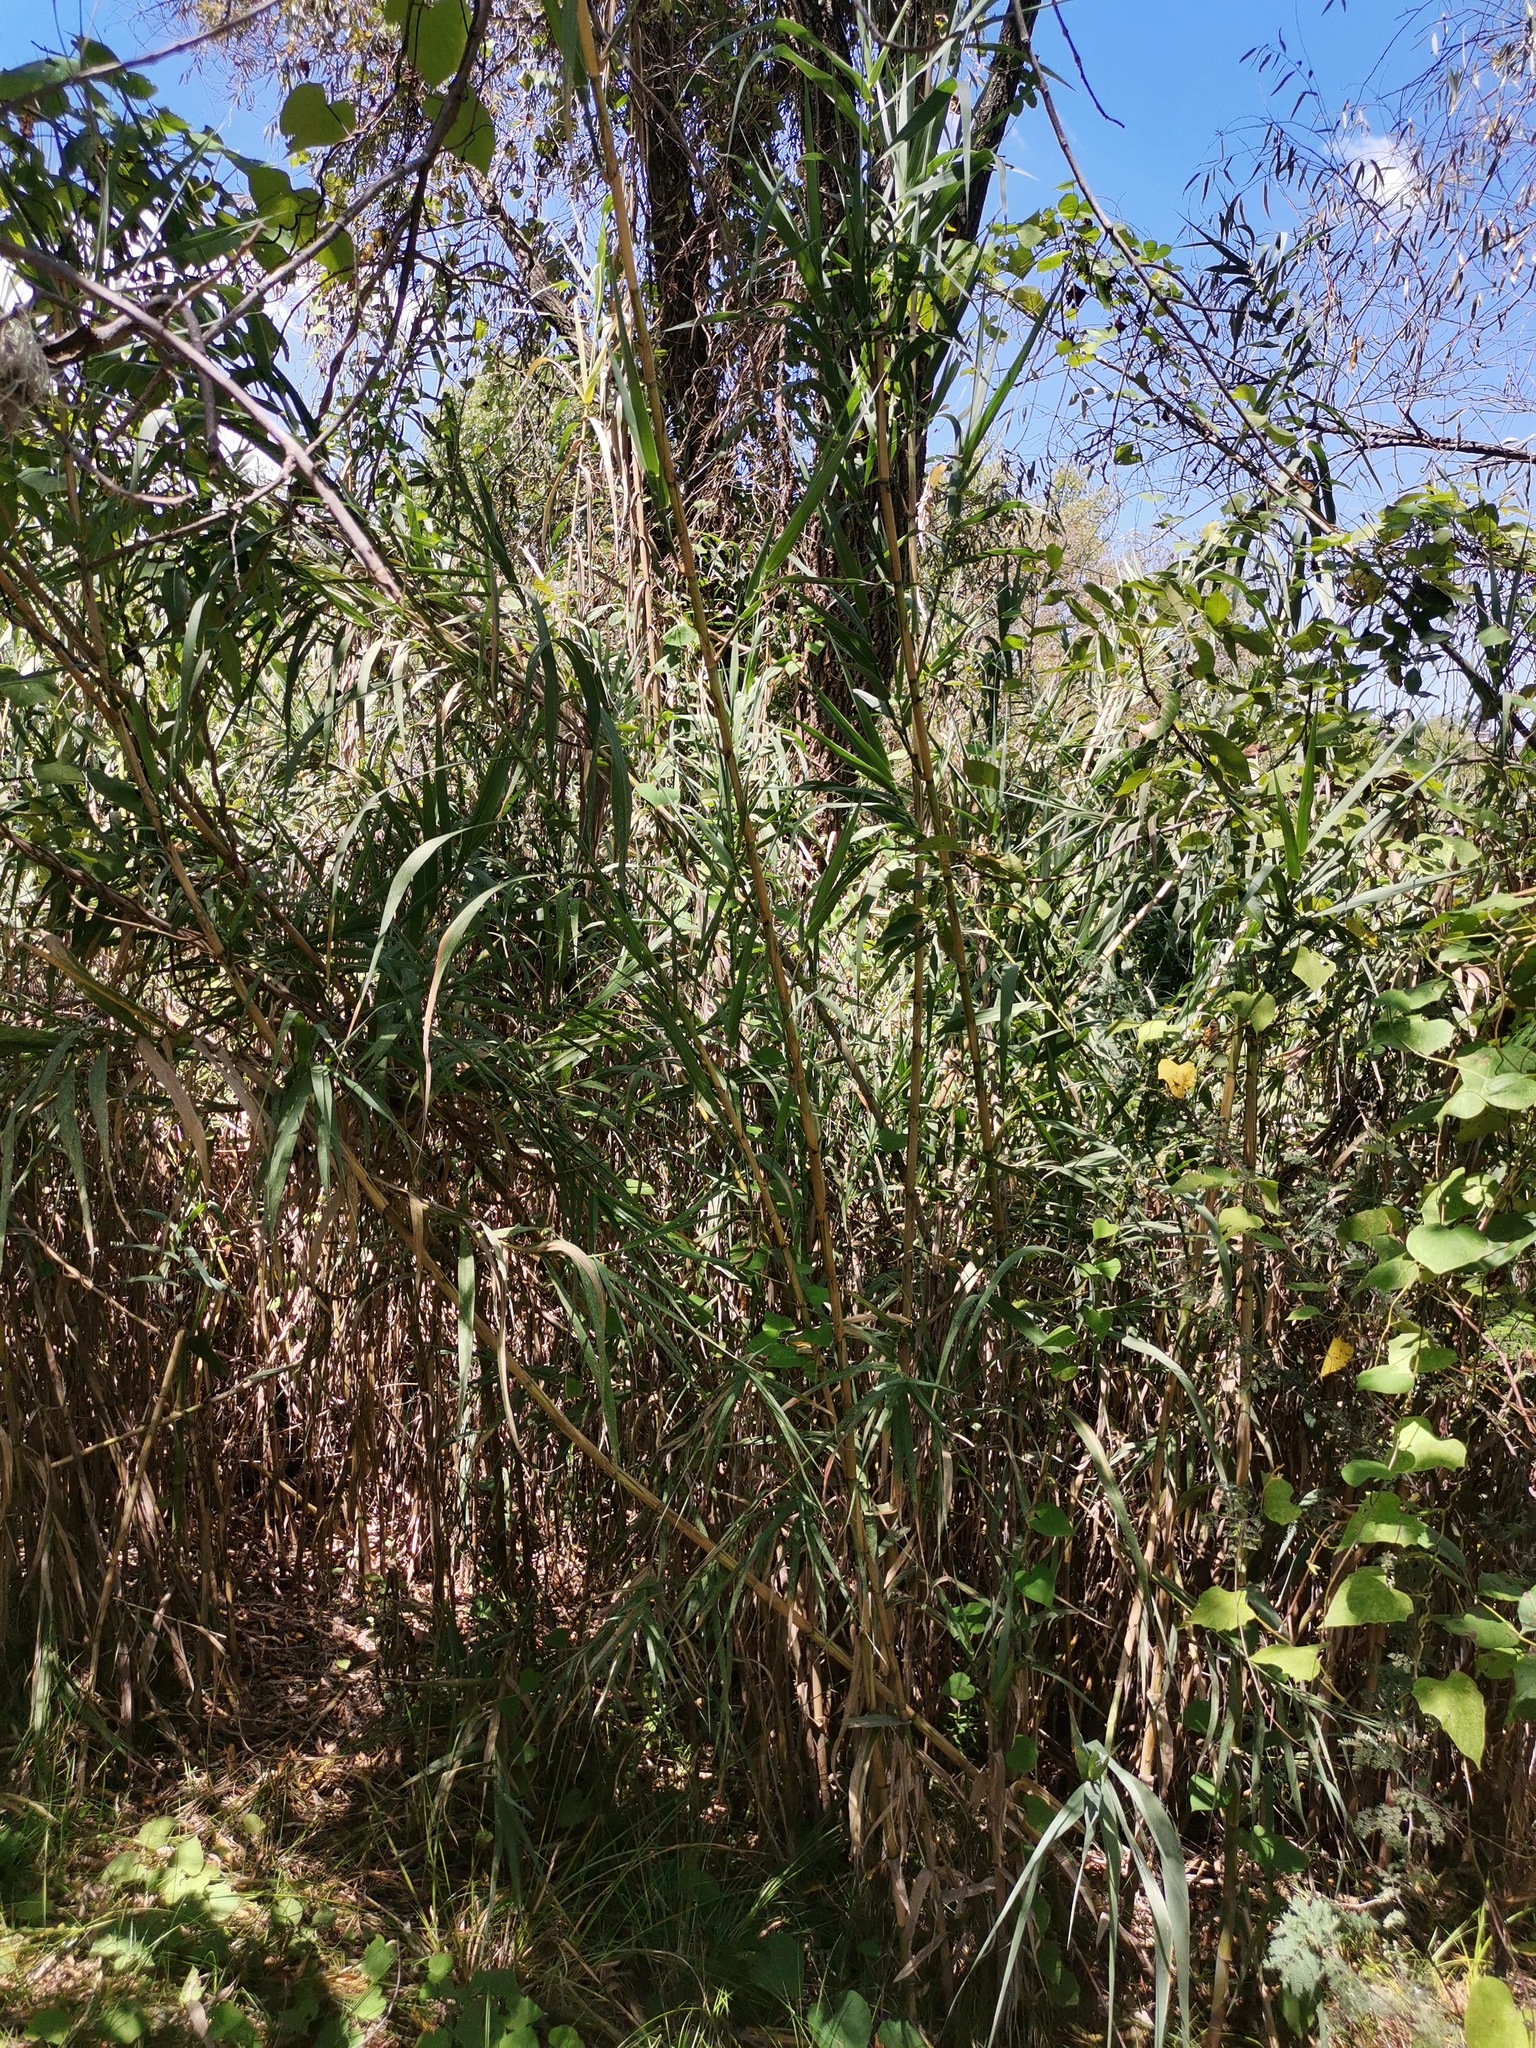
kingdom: Plantae
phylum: Tracheophyta
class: Liliopsida
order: Poales
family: Poaceae
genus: Arundo
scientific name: Arundo donax
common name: Giant reed
